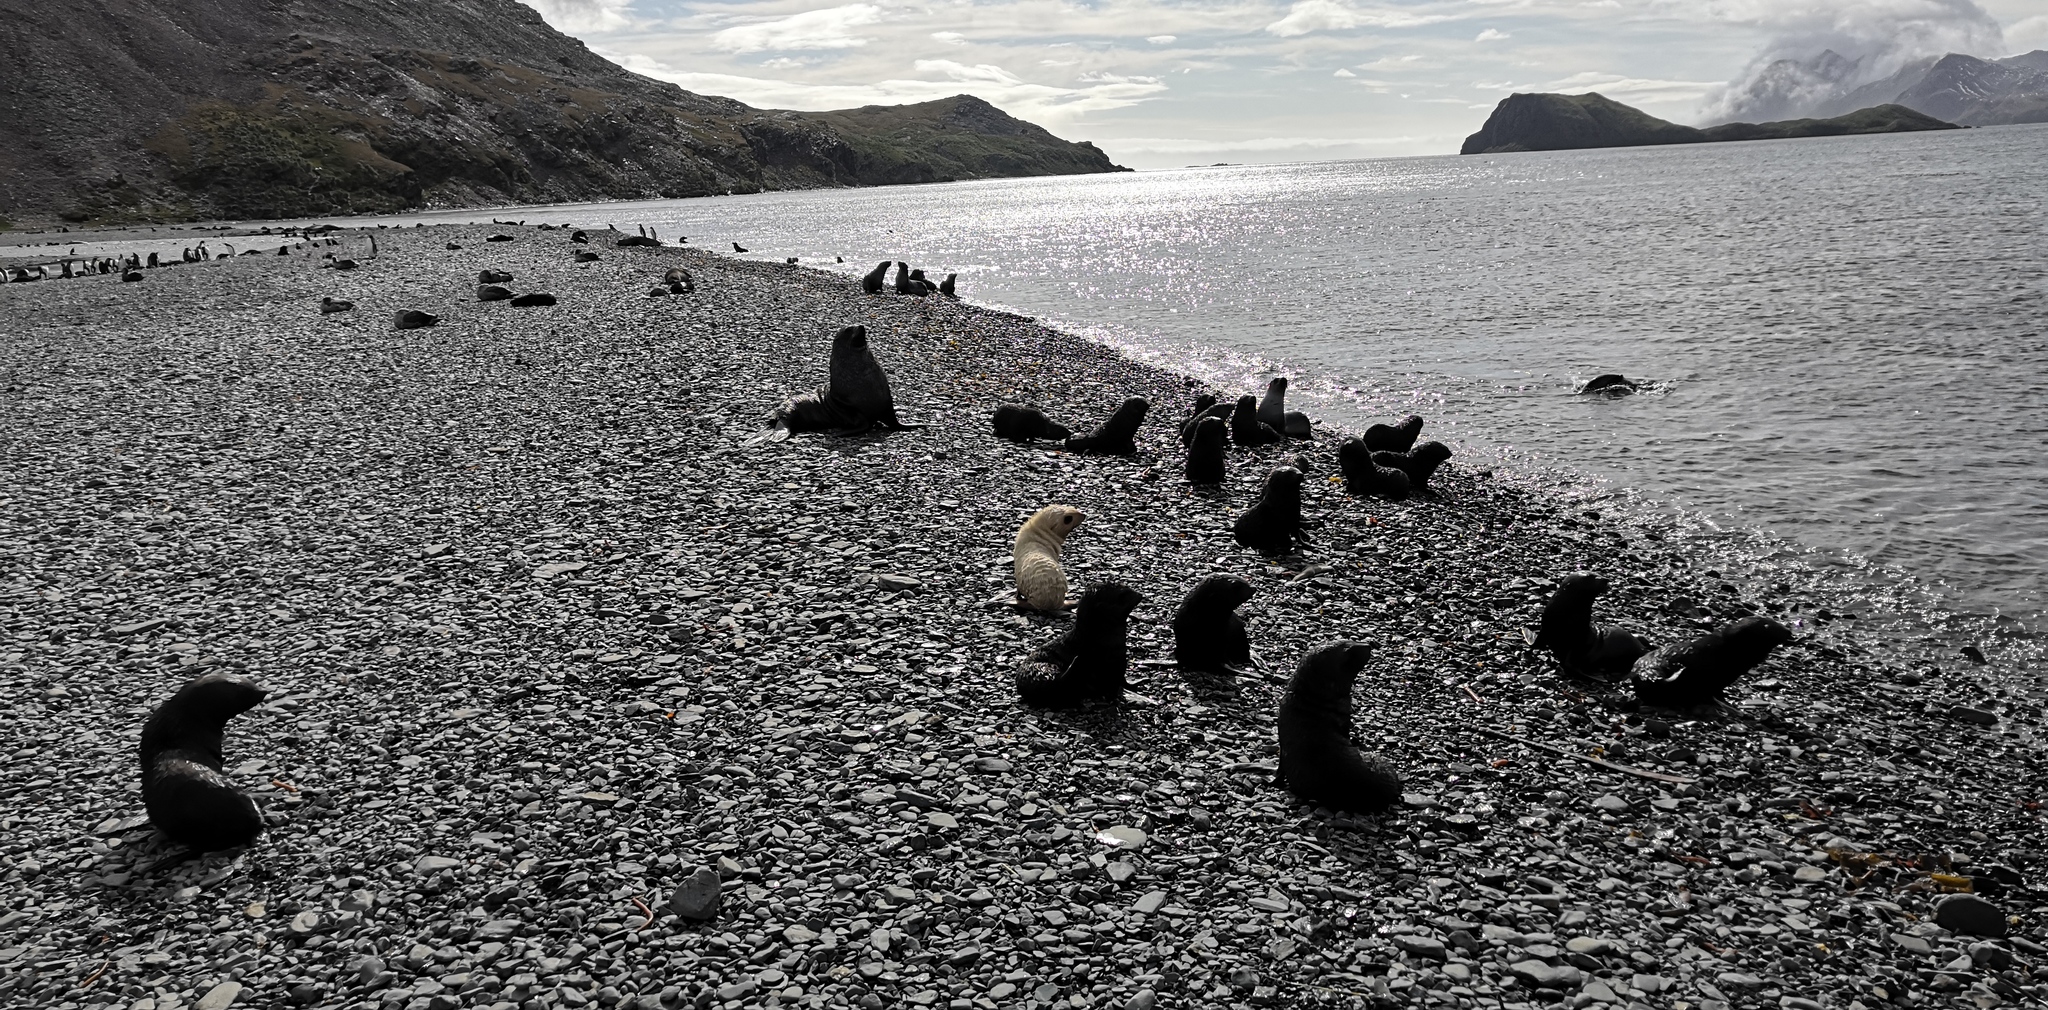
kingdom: Animalia
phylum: Chordata
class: Mammalia
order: Carnivora
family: Otariidae
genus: Arctocephalus
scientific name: Arctocephalus gazella
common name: Antarctic fur seal
